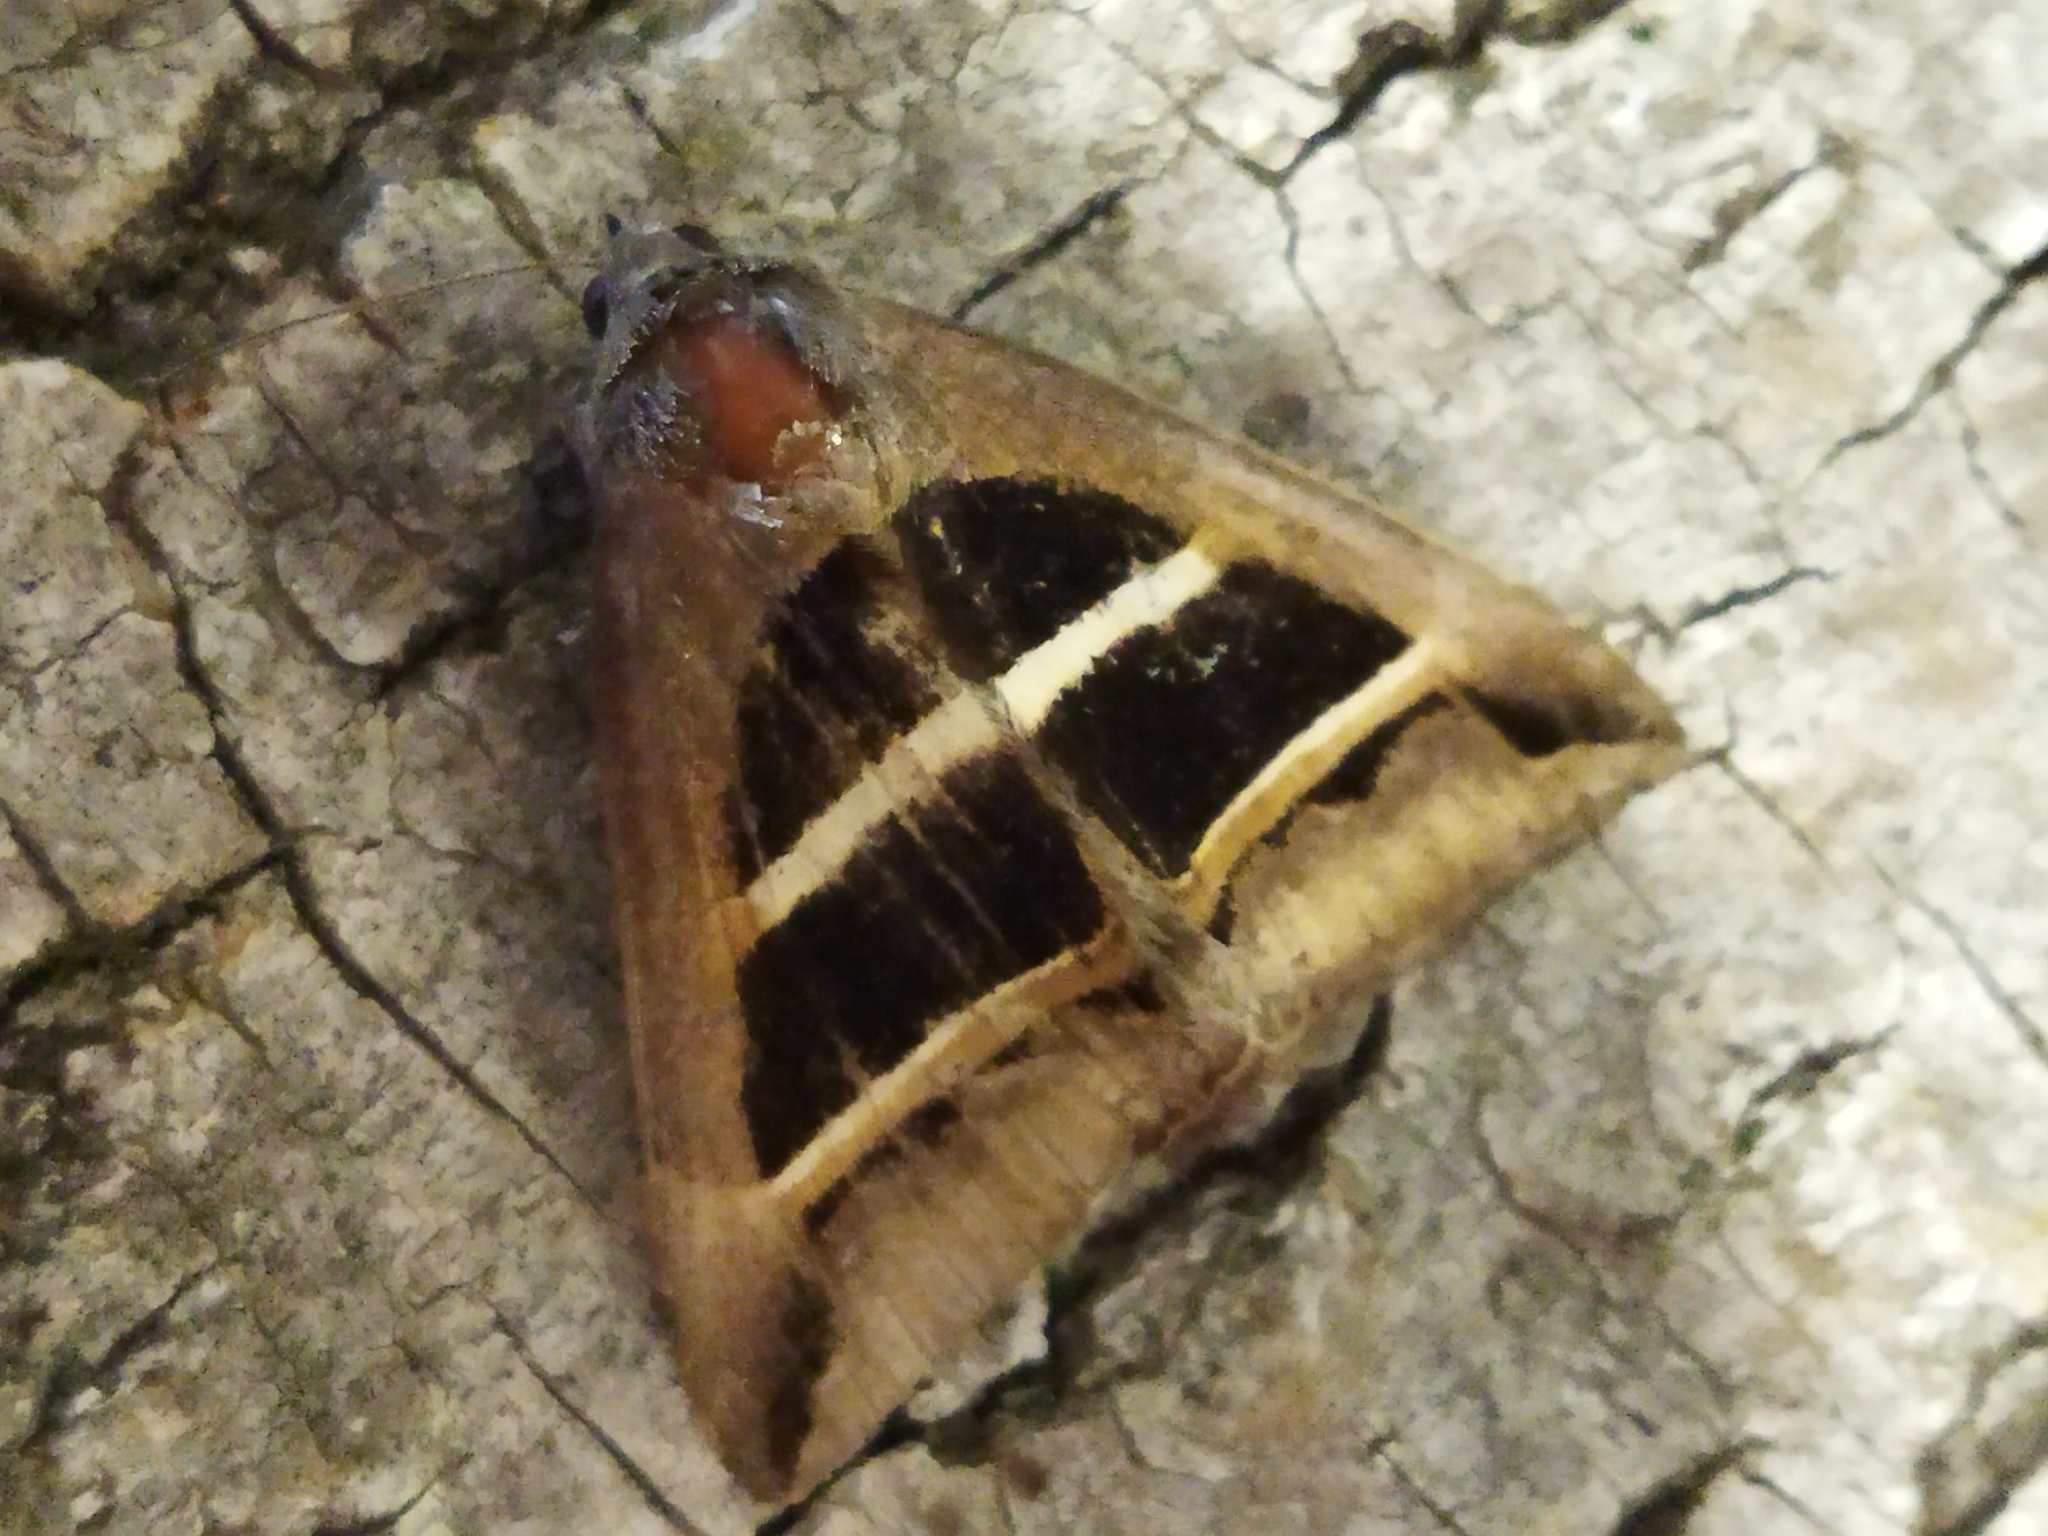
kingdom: Animalia
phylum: Arthropoda
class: Insecta
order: Lepidoptera
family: Erebidae
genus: Grammodes
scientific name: Grammodes bifasciata
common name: Parallel lines
